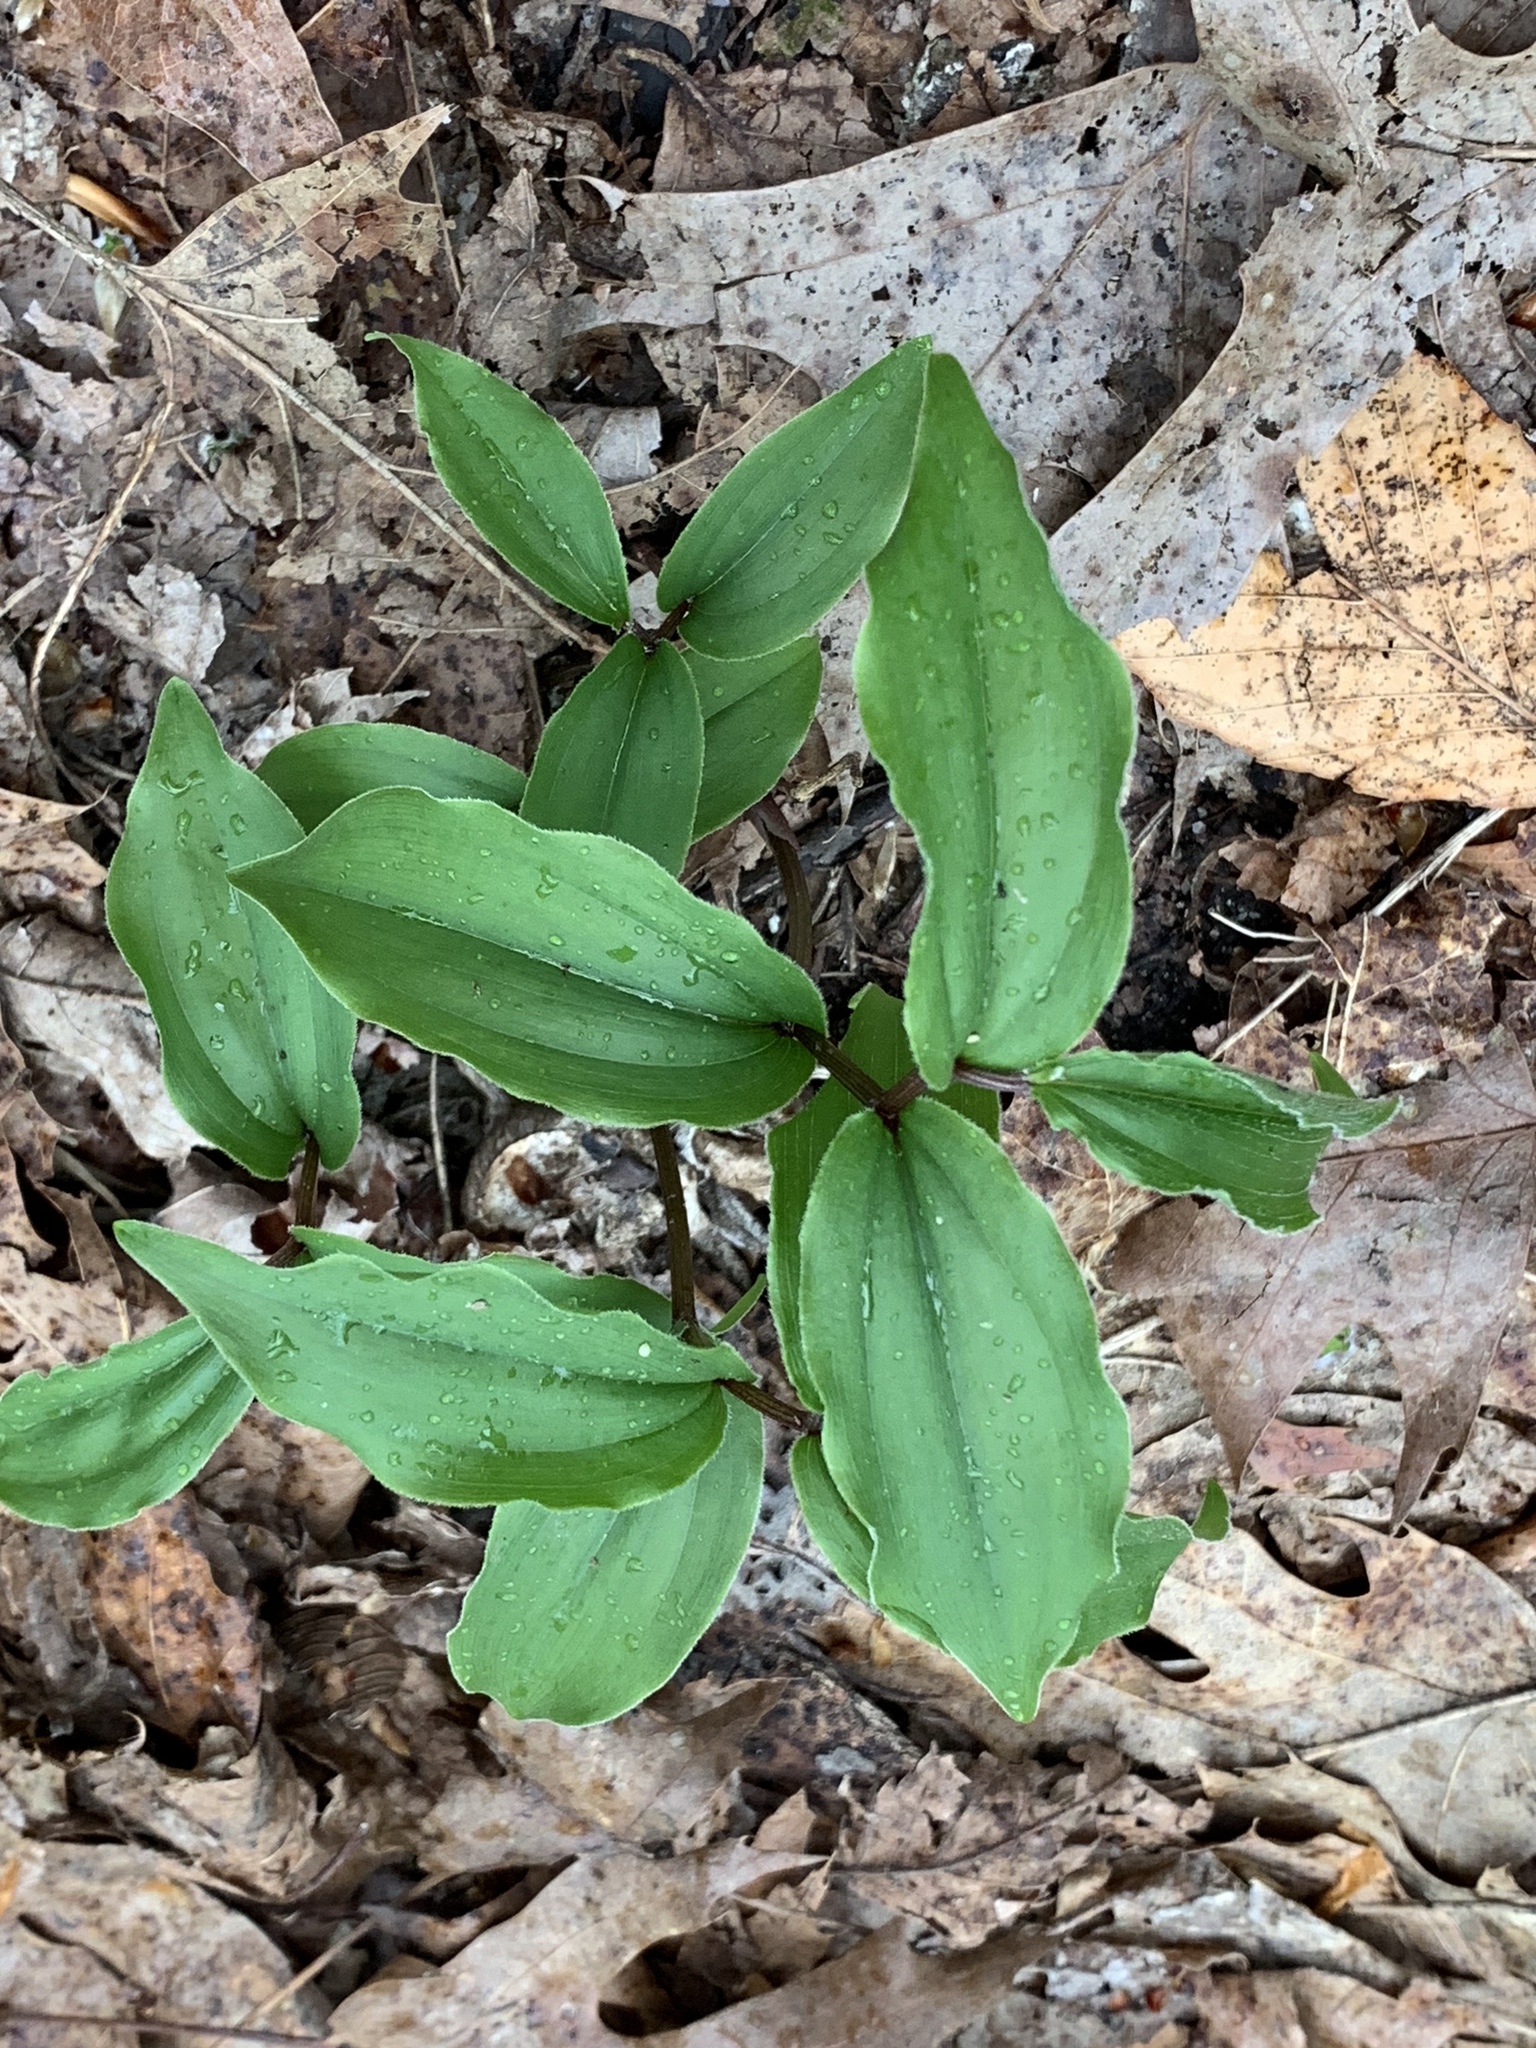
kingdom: Plantae
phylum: Tracheophyta
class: Liliopsida
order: Asparagales
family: Asparagaceae
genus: Maianthemum
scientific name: Maianthemum racemosum
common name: False spikenard
